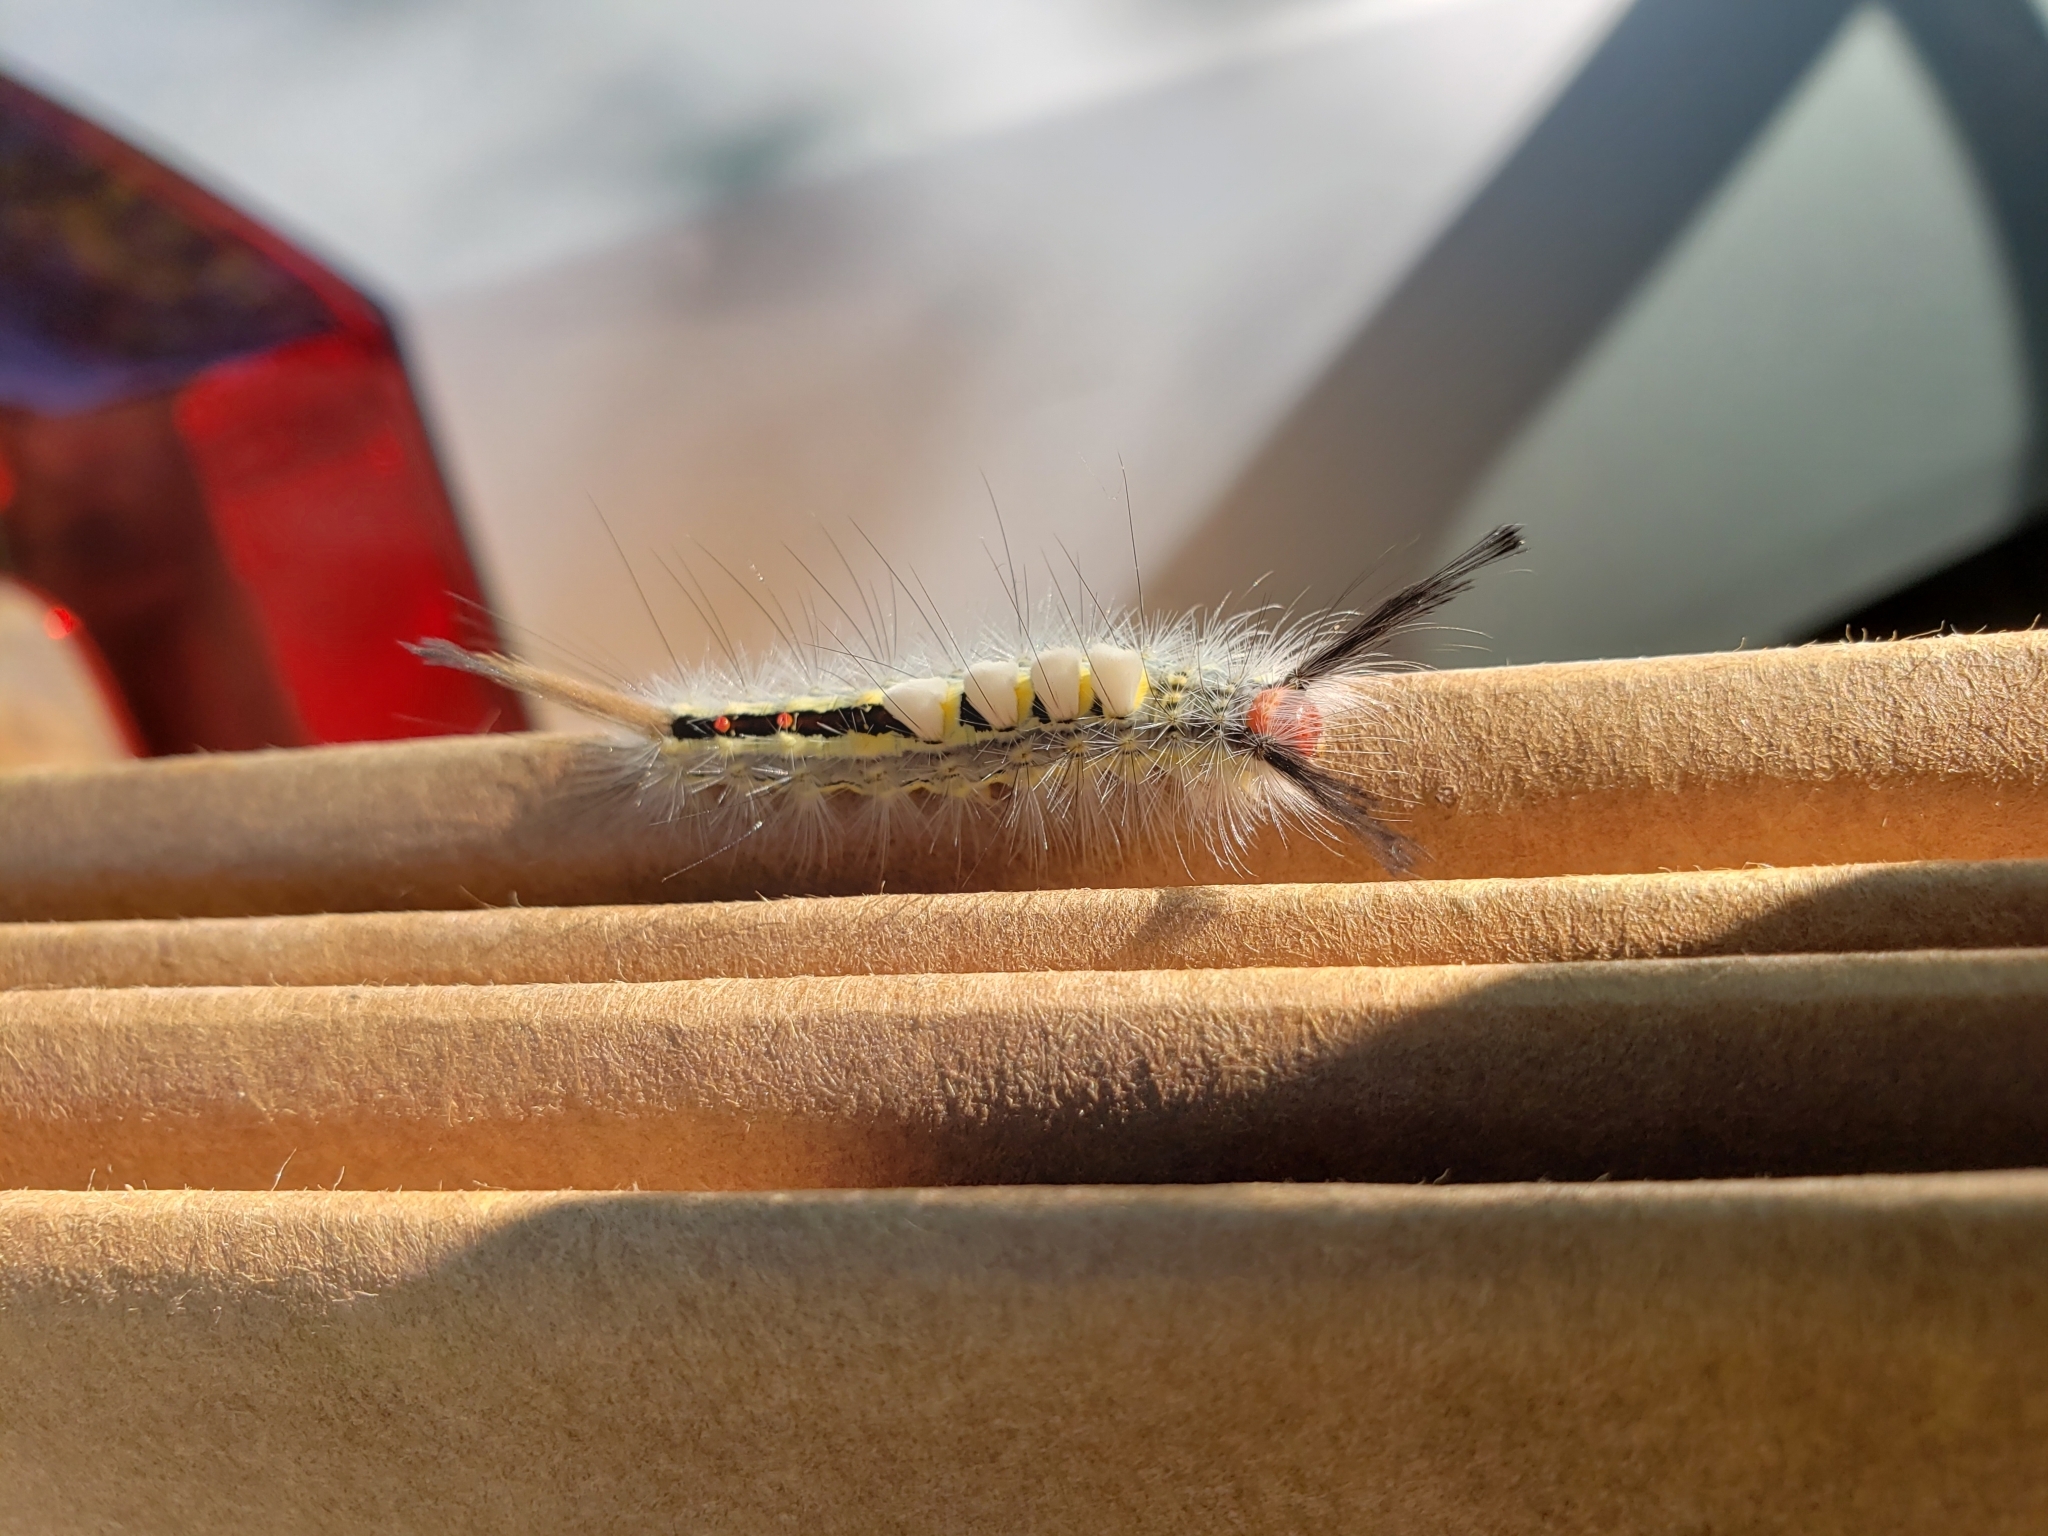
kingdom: Animalia
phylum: Arthropoda
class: Insecta
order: Lepidoptera
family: Erebidae
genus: Orgyia
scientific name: Orgyia leucostigma
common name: White-marked tussock moth
